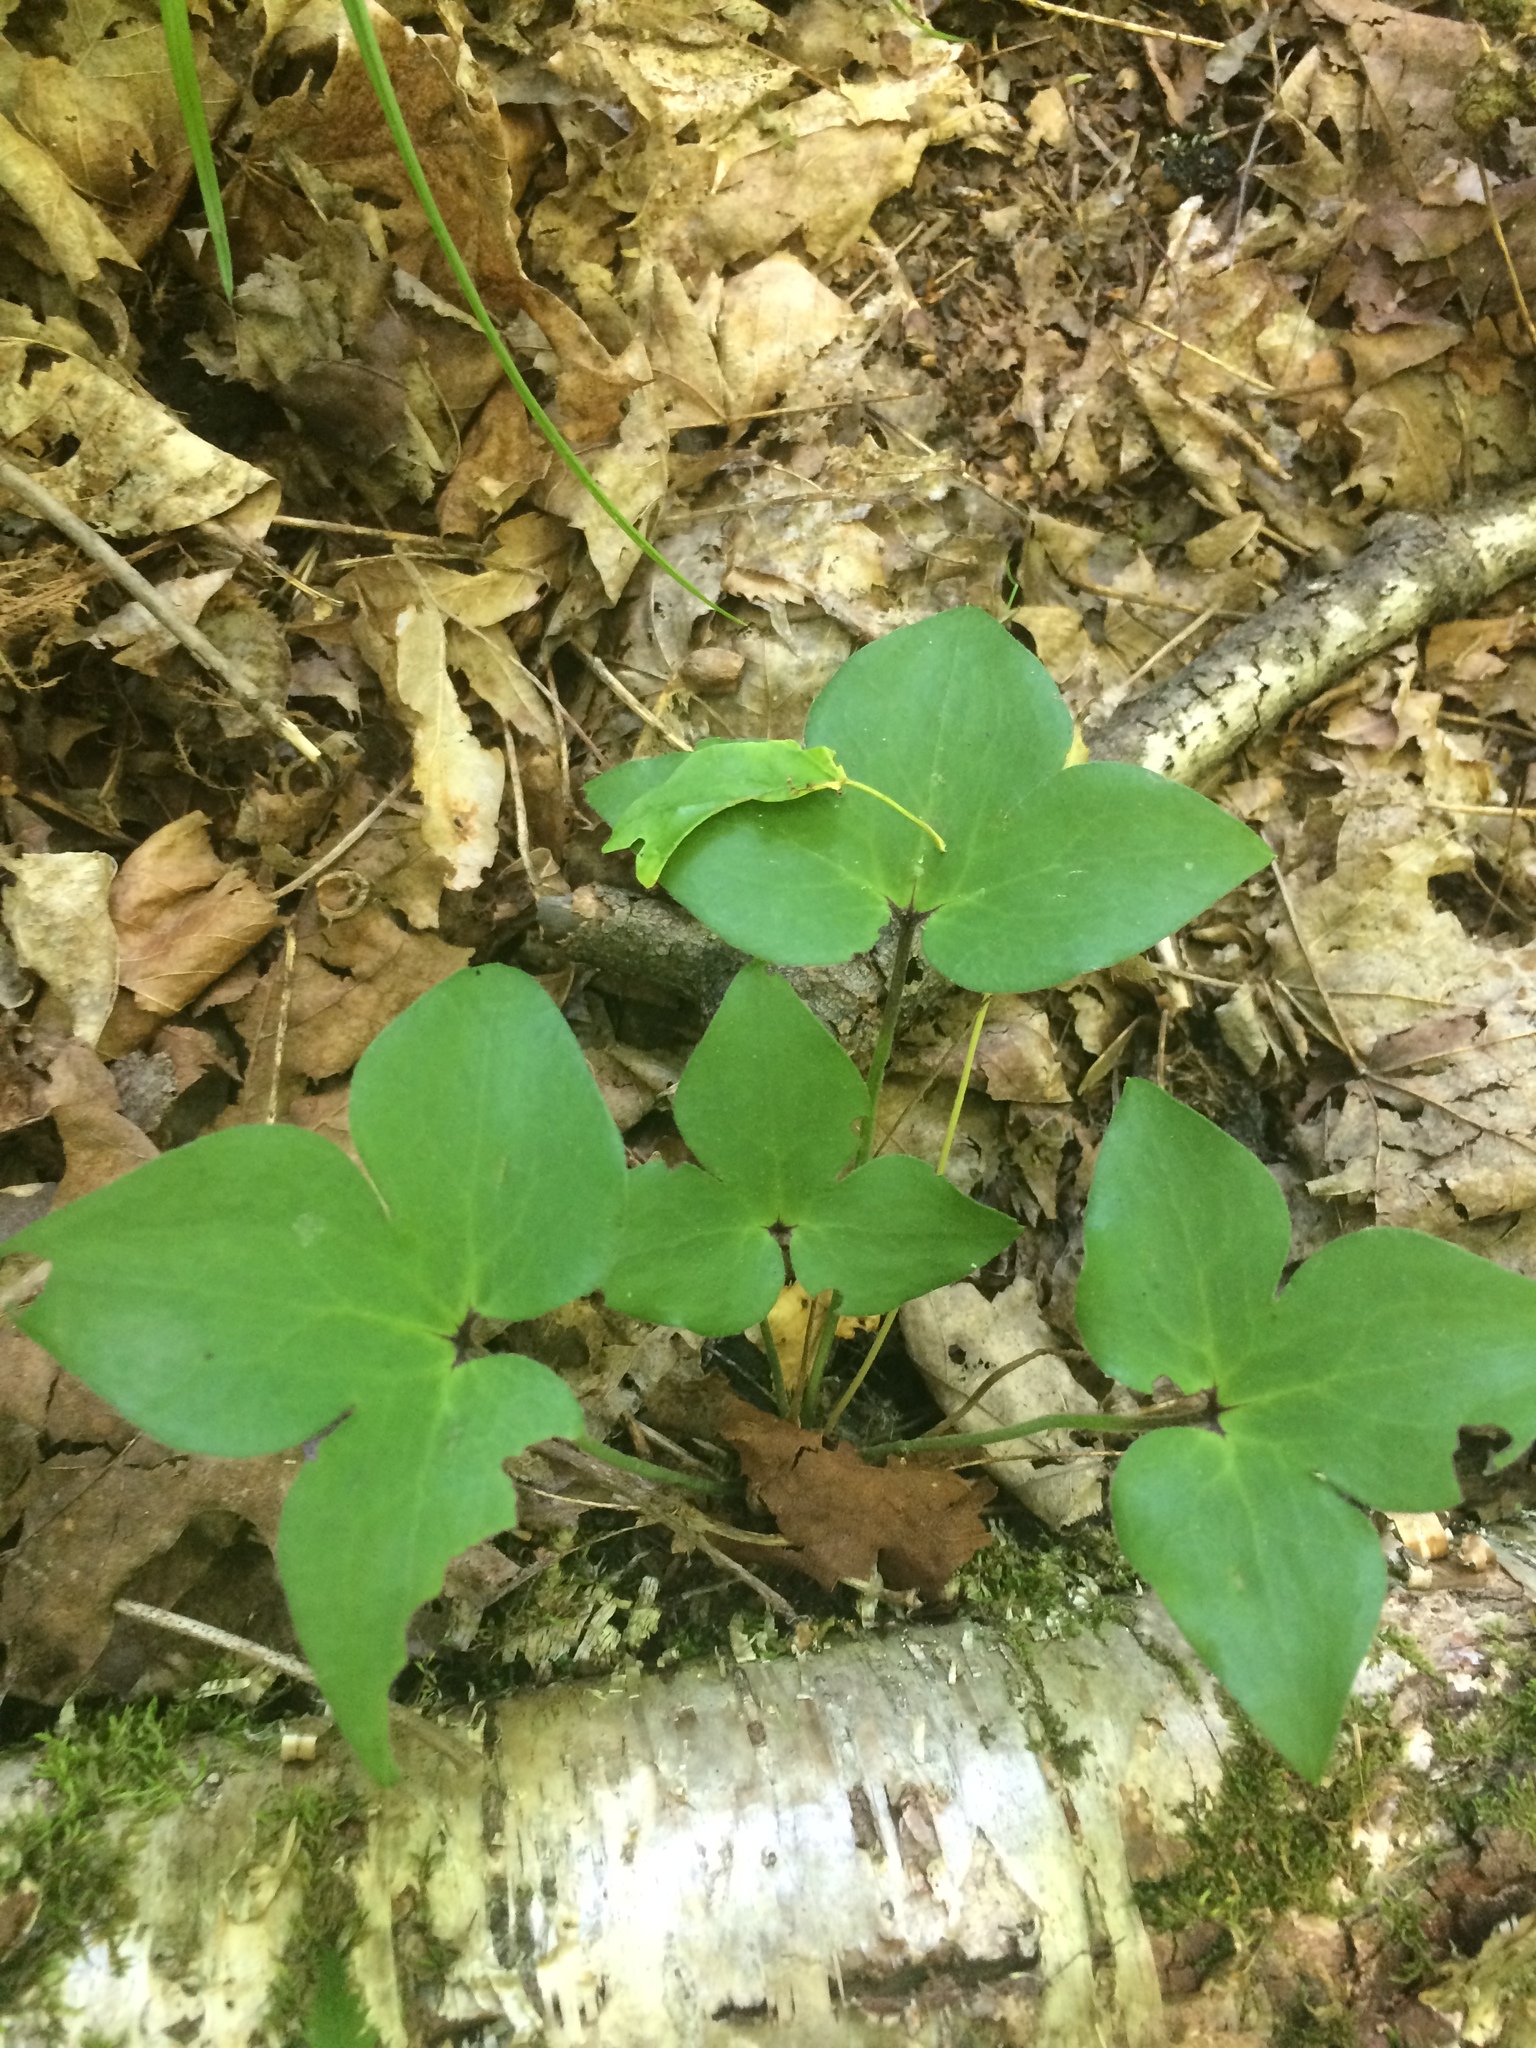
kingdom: Plantae
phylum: Tracheophyta
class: Magnoliopsida
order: Ranunculales
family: Ranunculaceae
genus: Hepatica
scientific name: Hepatica acutiloba
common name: Sharp-lobed hepatica
